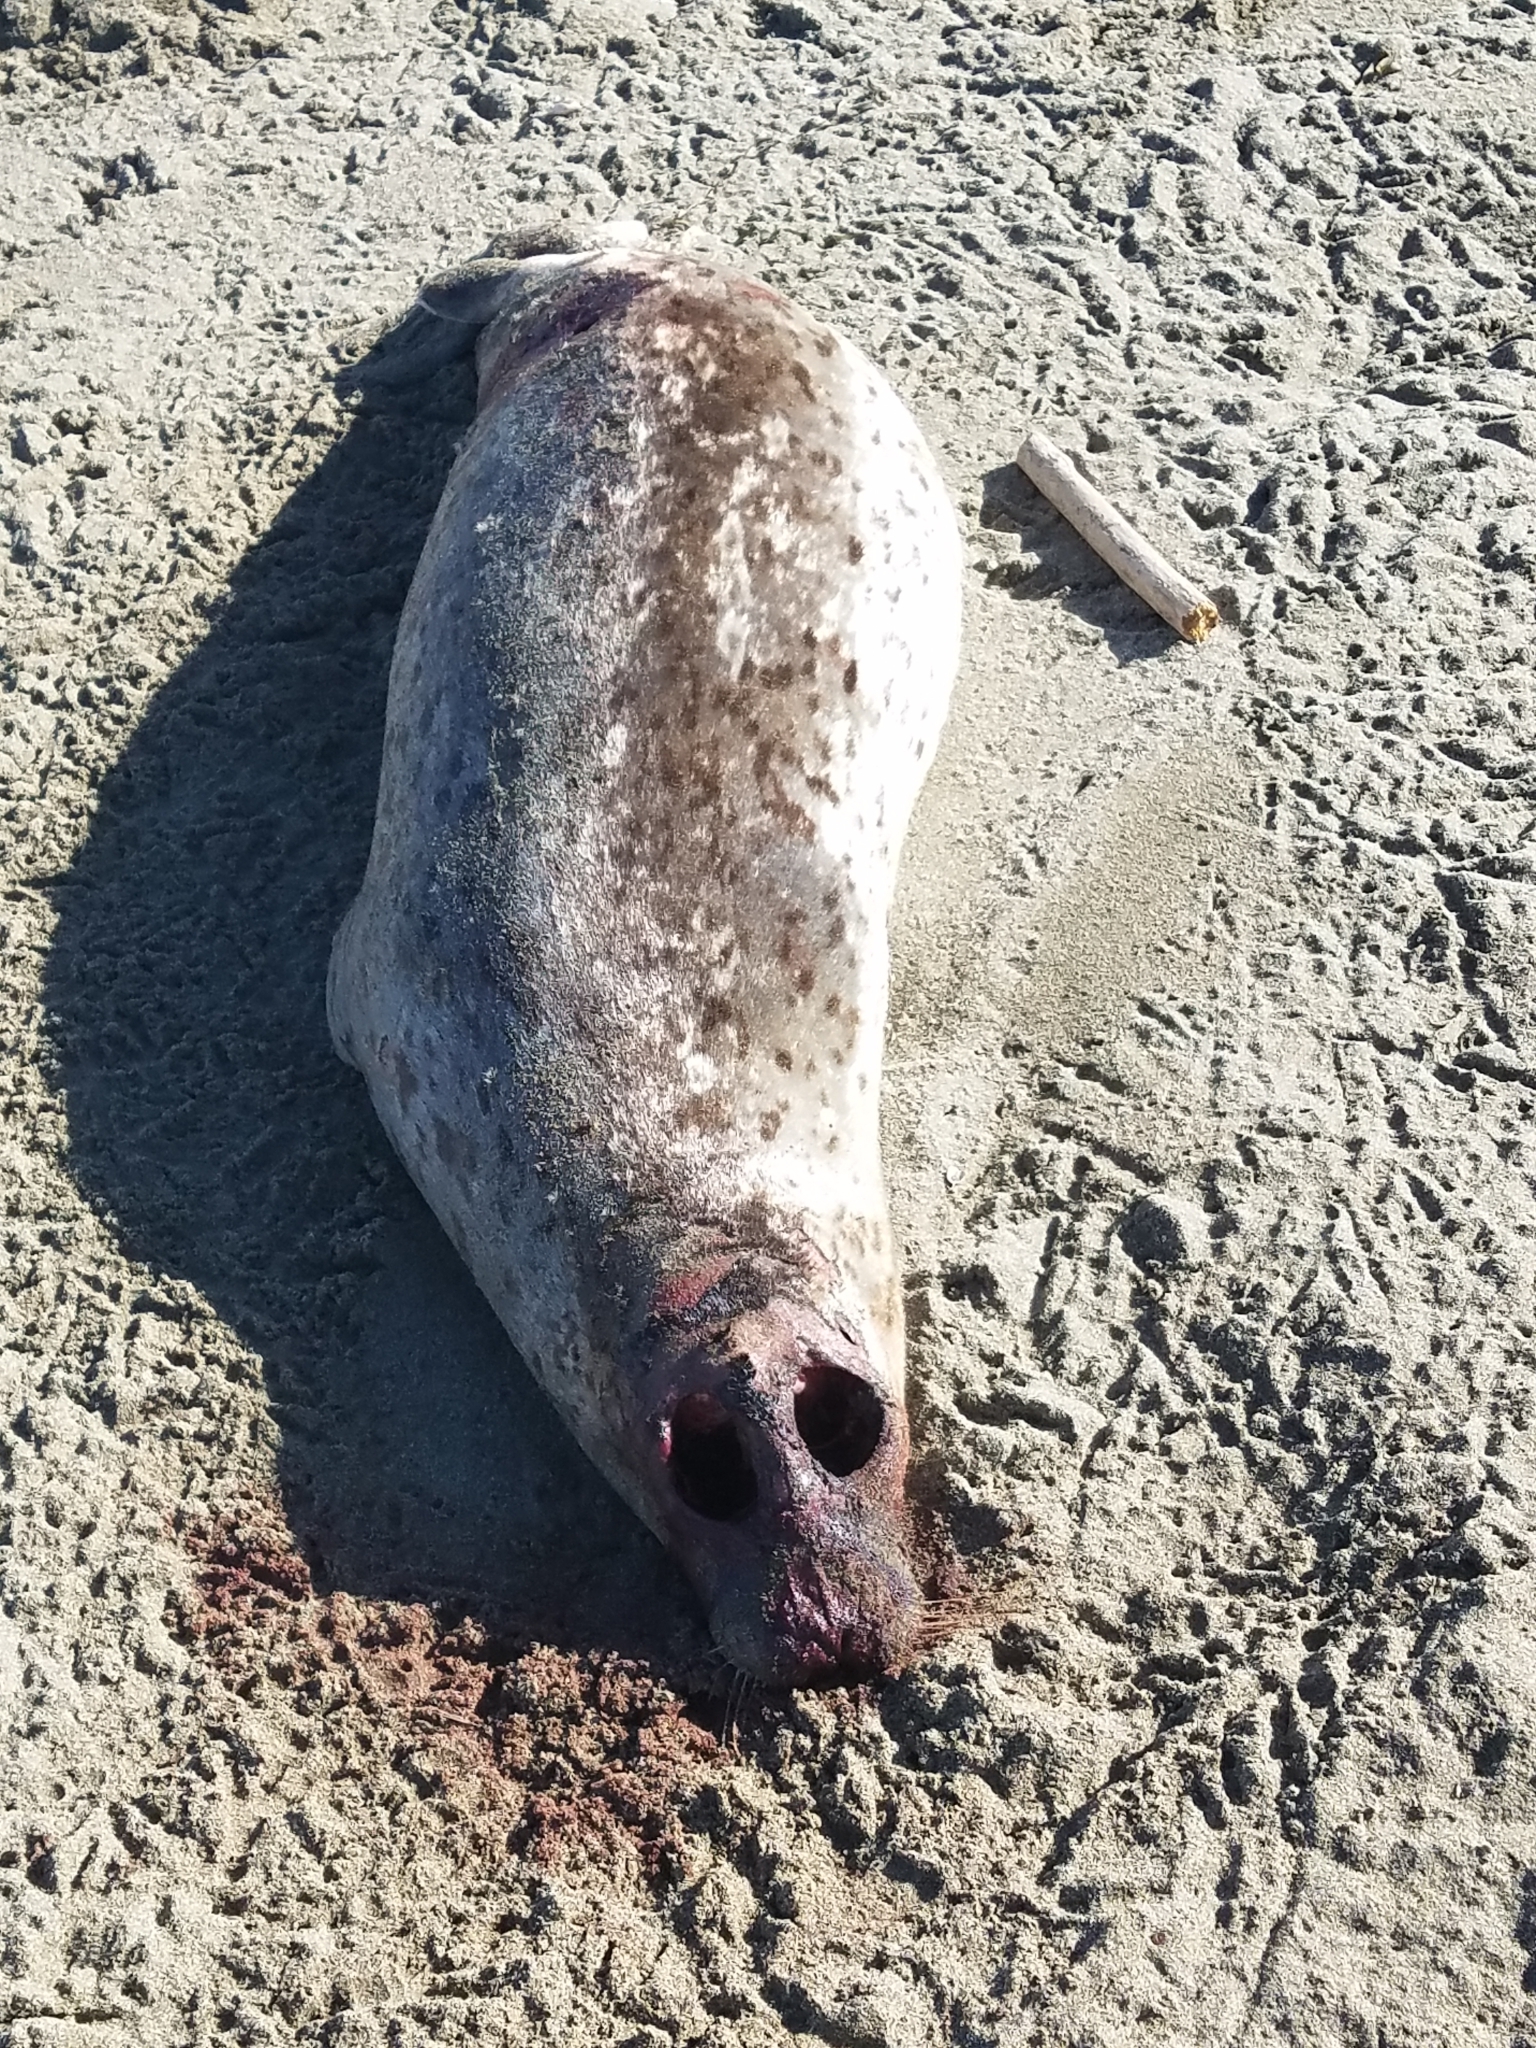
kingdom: Animalia
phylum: Chordata
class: Mammalia
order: Carnivora
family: Phocidae
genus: Phoca
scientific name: Phoca vitulina
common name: Harbor seal
